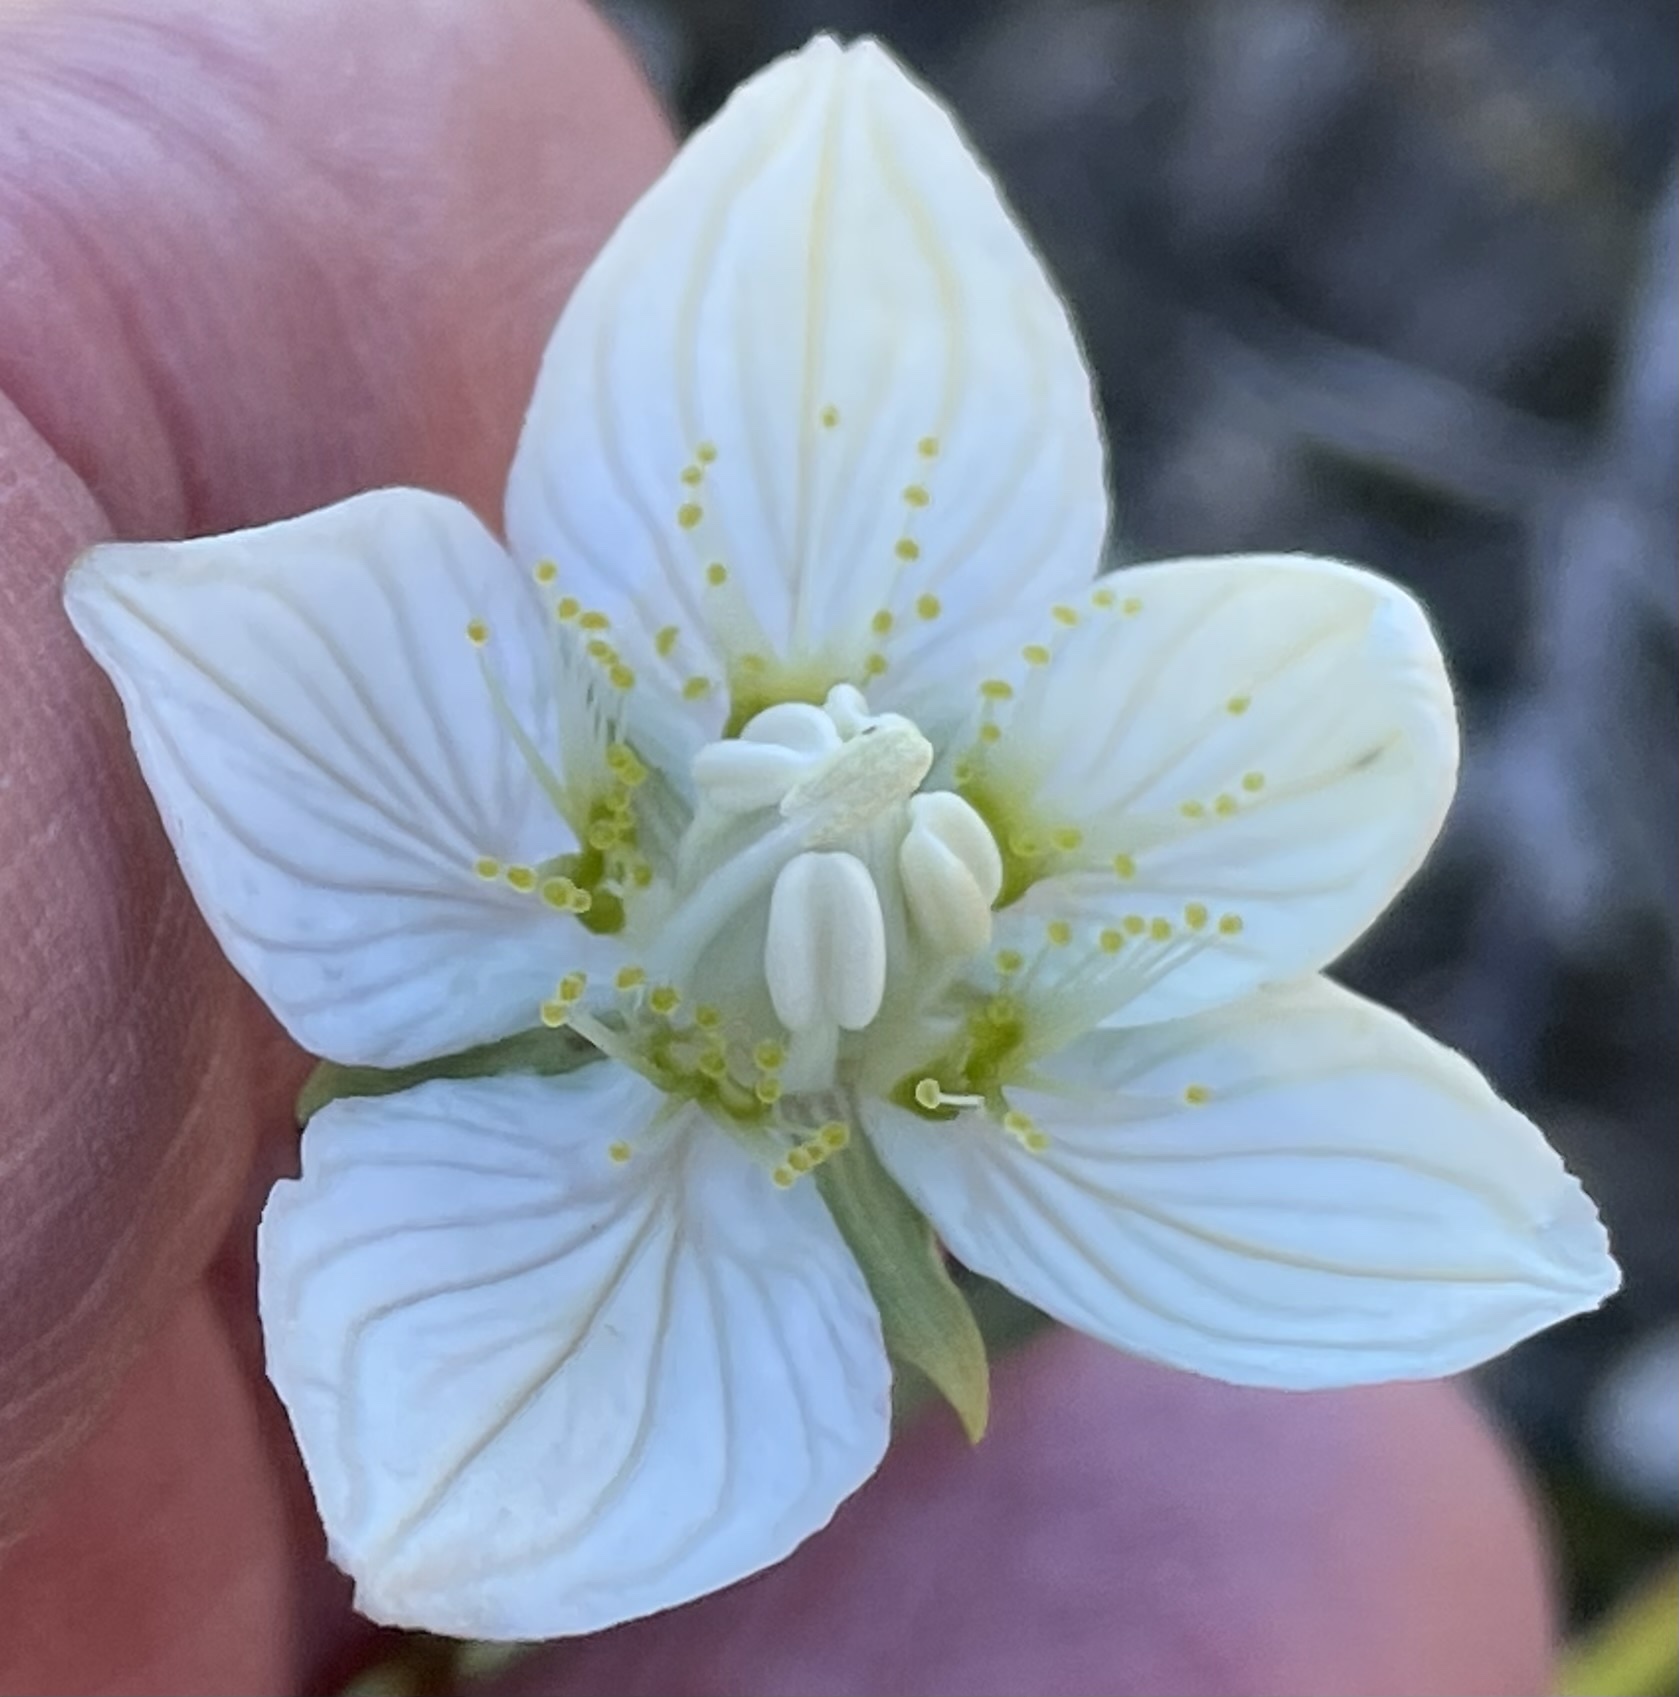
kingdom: Plantae
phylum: Tracheophyta
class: Magnoliopsida
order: Celastrales
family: Parnassiaceae
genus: Parnassia
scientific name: Parnassia palustris
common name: Grass-of-parnassus
